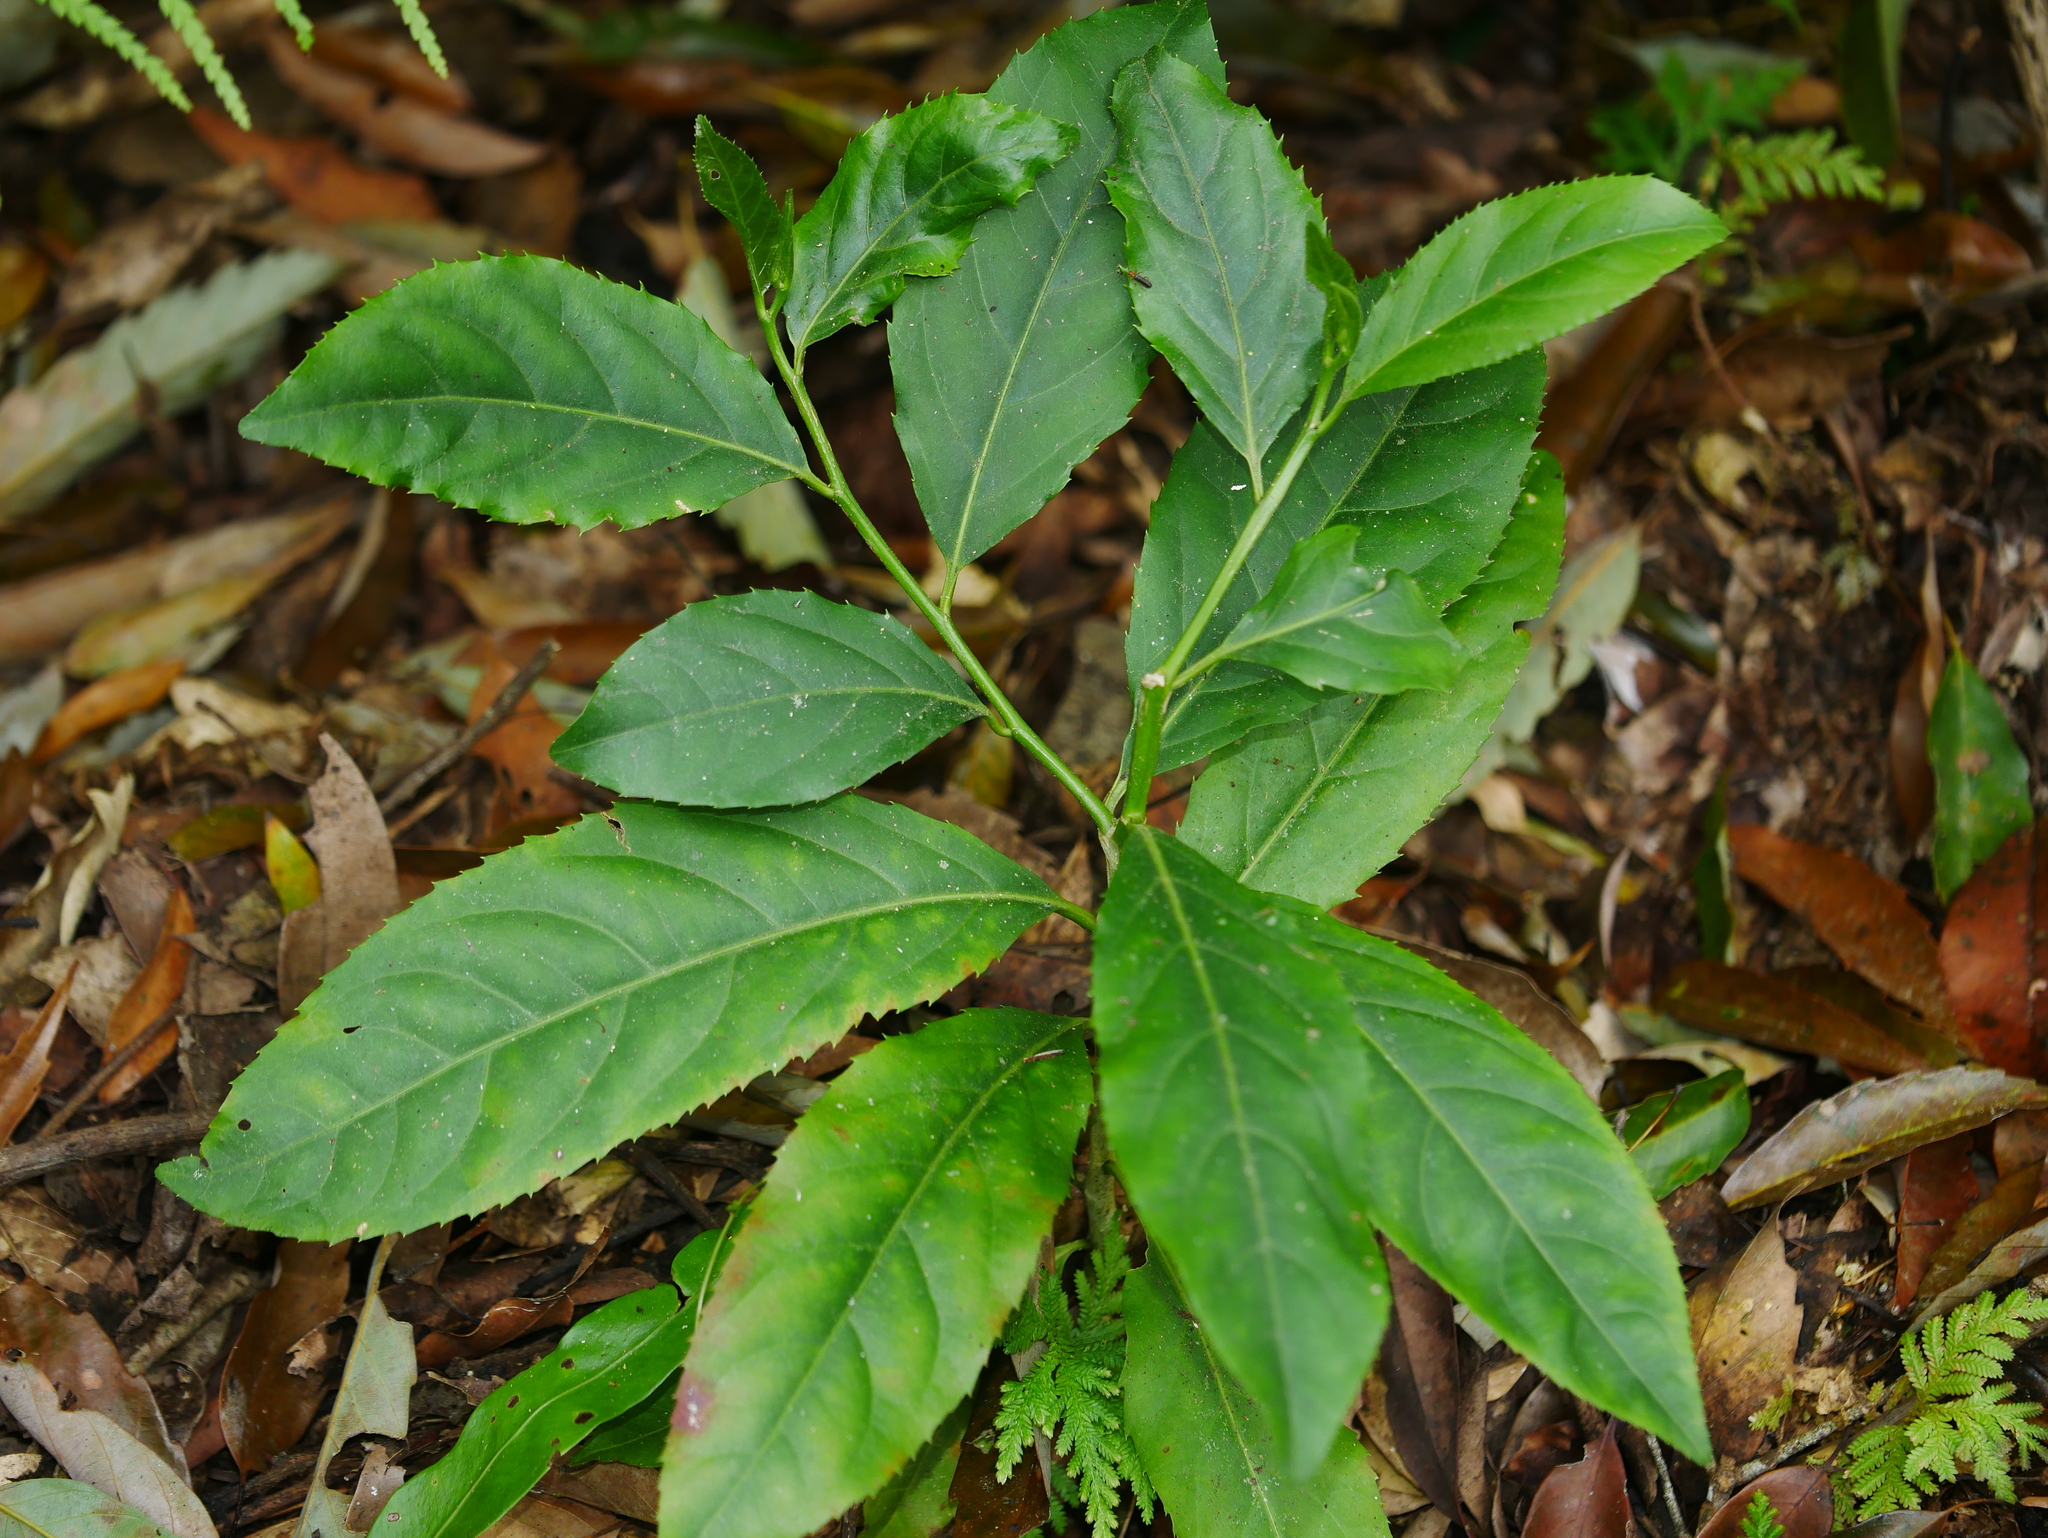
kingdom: Plantae
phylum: Tracheophyta
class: Magnoliopsida
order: Malpighiales
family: Salicaceae
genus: Casearia
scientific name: Casearia glomerata
